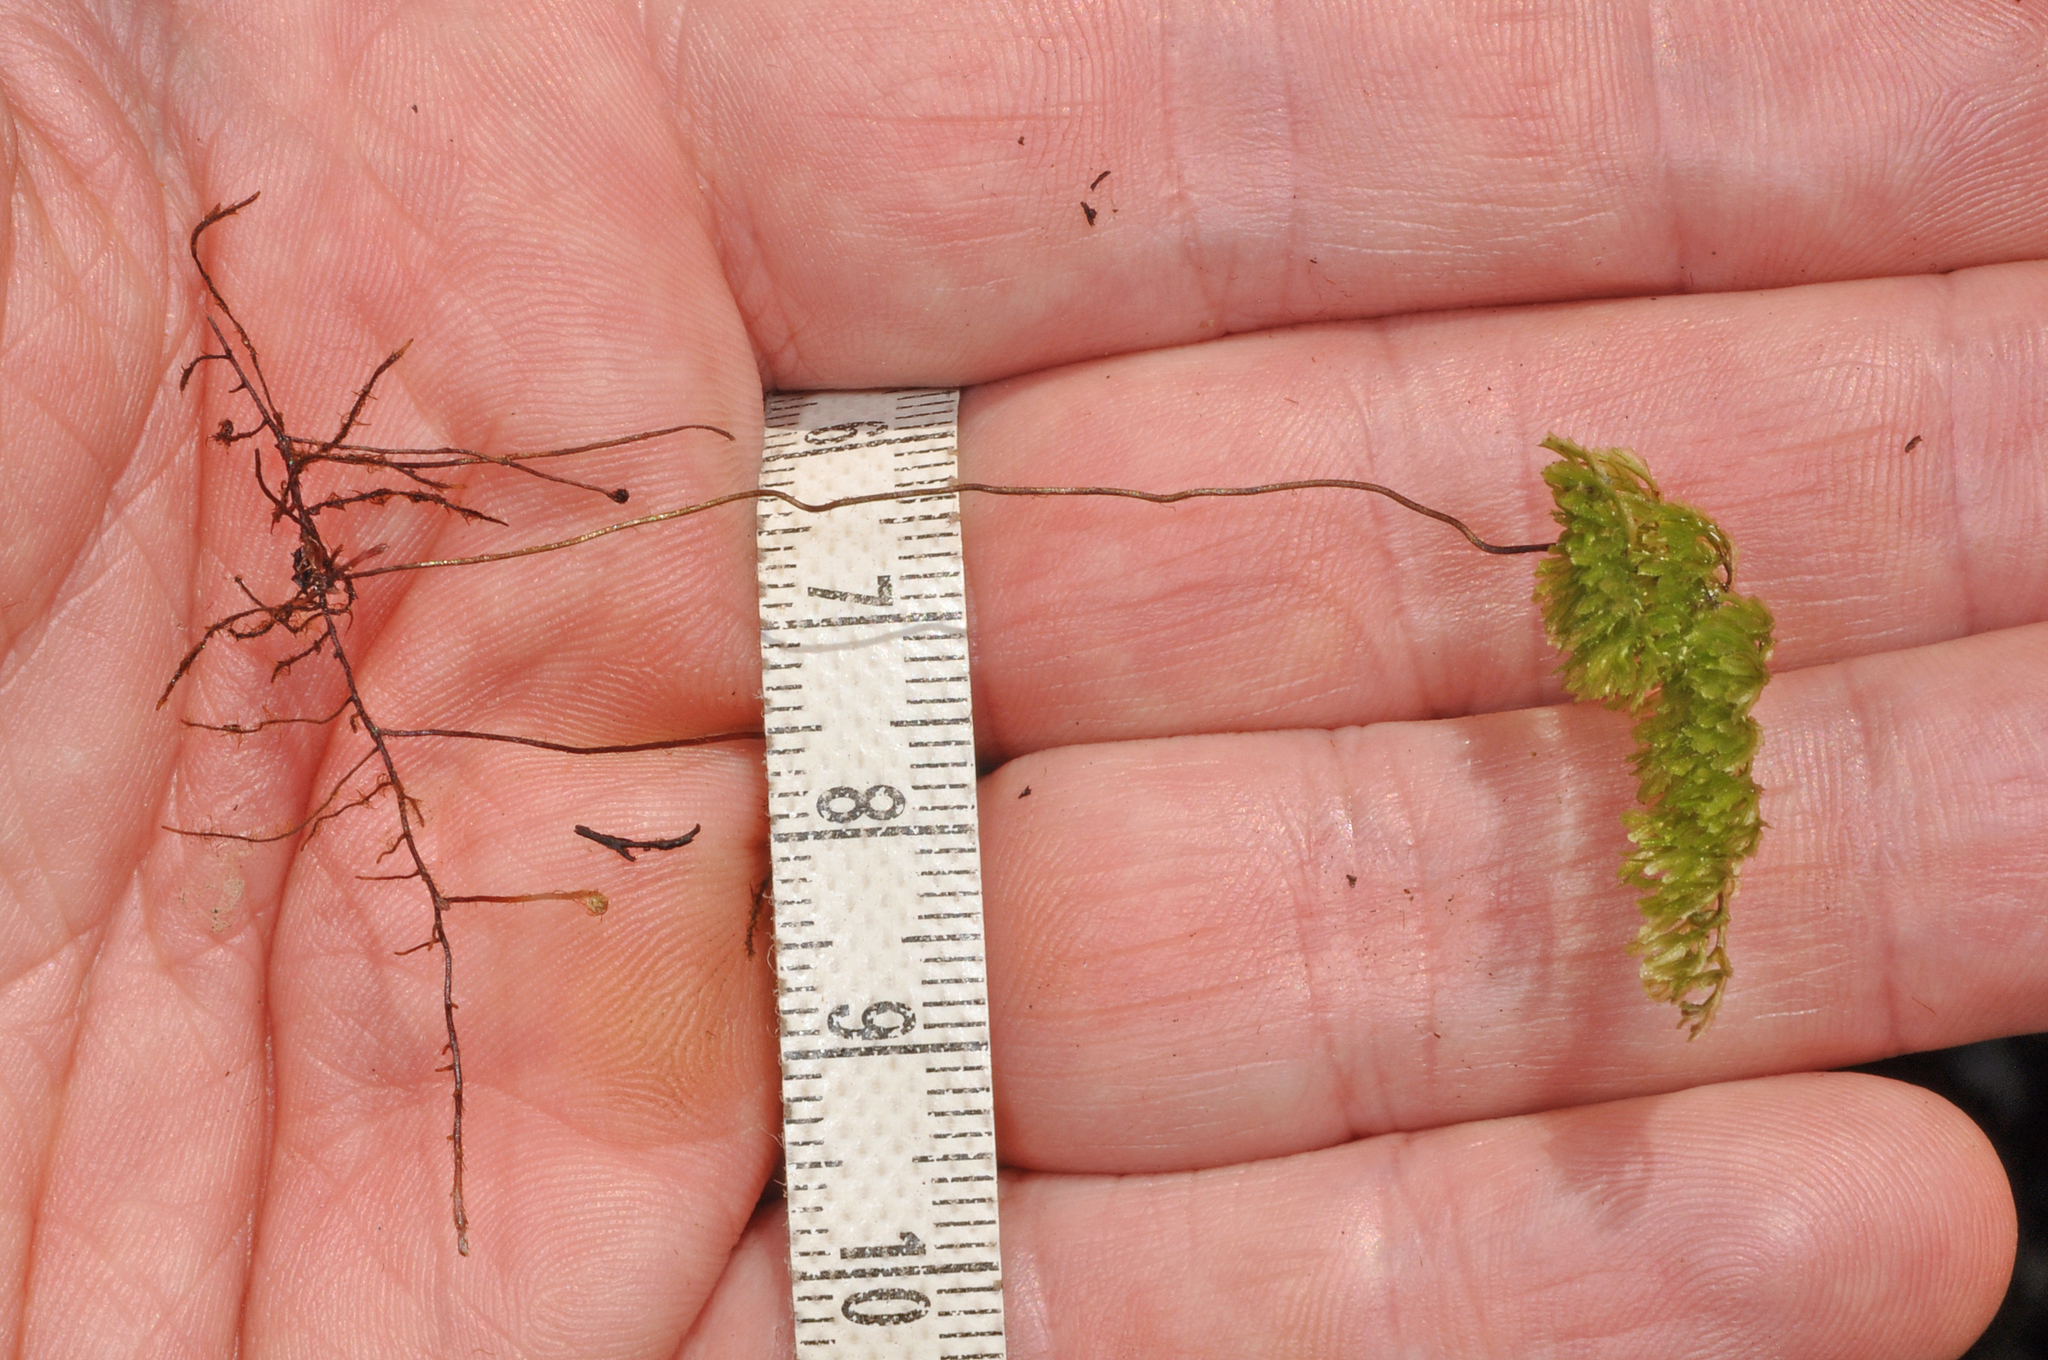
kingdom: Plantae
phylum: Tracheophyta
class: Polypodiopsida
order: Hymenophyllales
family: Hymenophyllaceae
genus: Hymenophyllum
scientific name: Hymenophyllum multifidum
